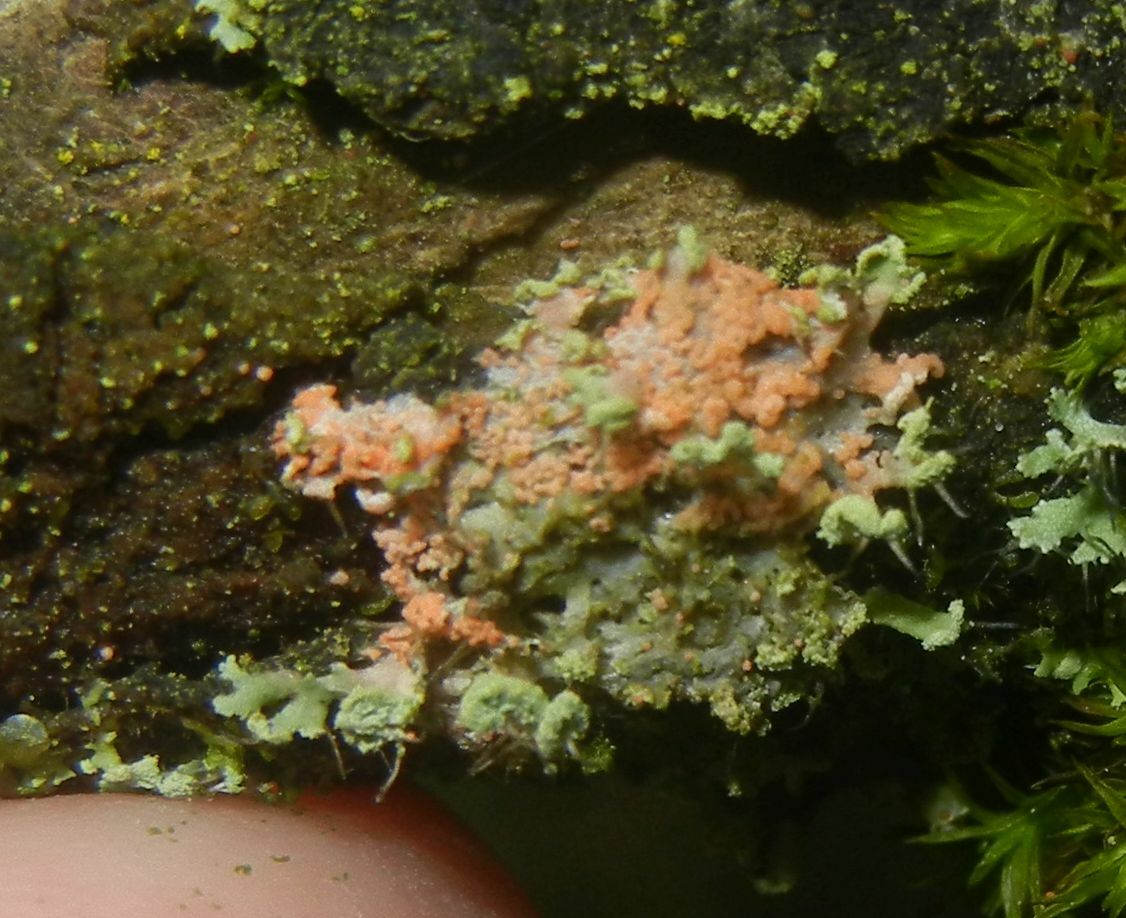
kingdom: Fungi
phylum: Basidiomycota
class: Agaricomycetes
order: Corticiales
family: Corticiaceae
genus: Erythricium
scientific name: Erythricium aurantiacum
